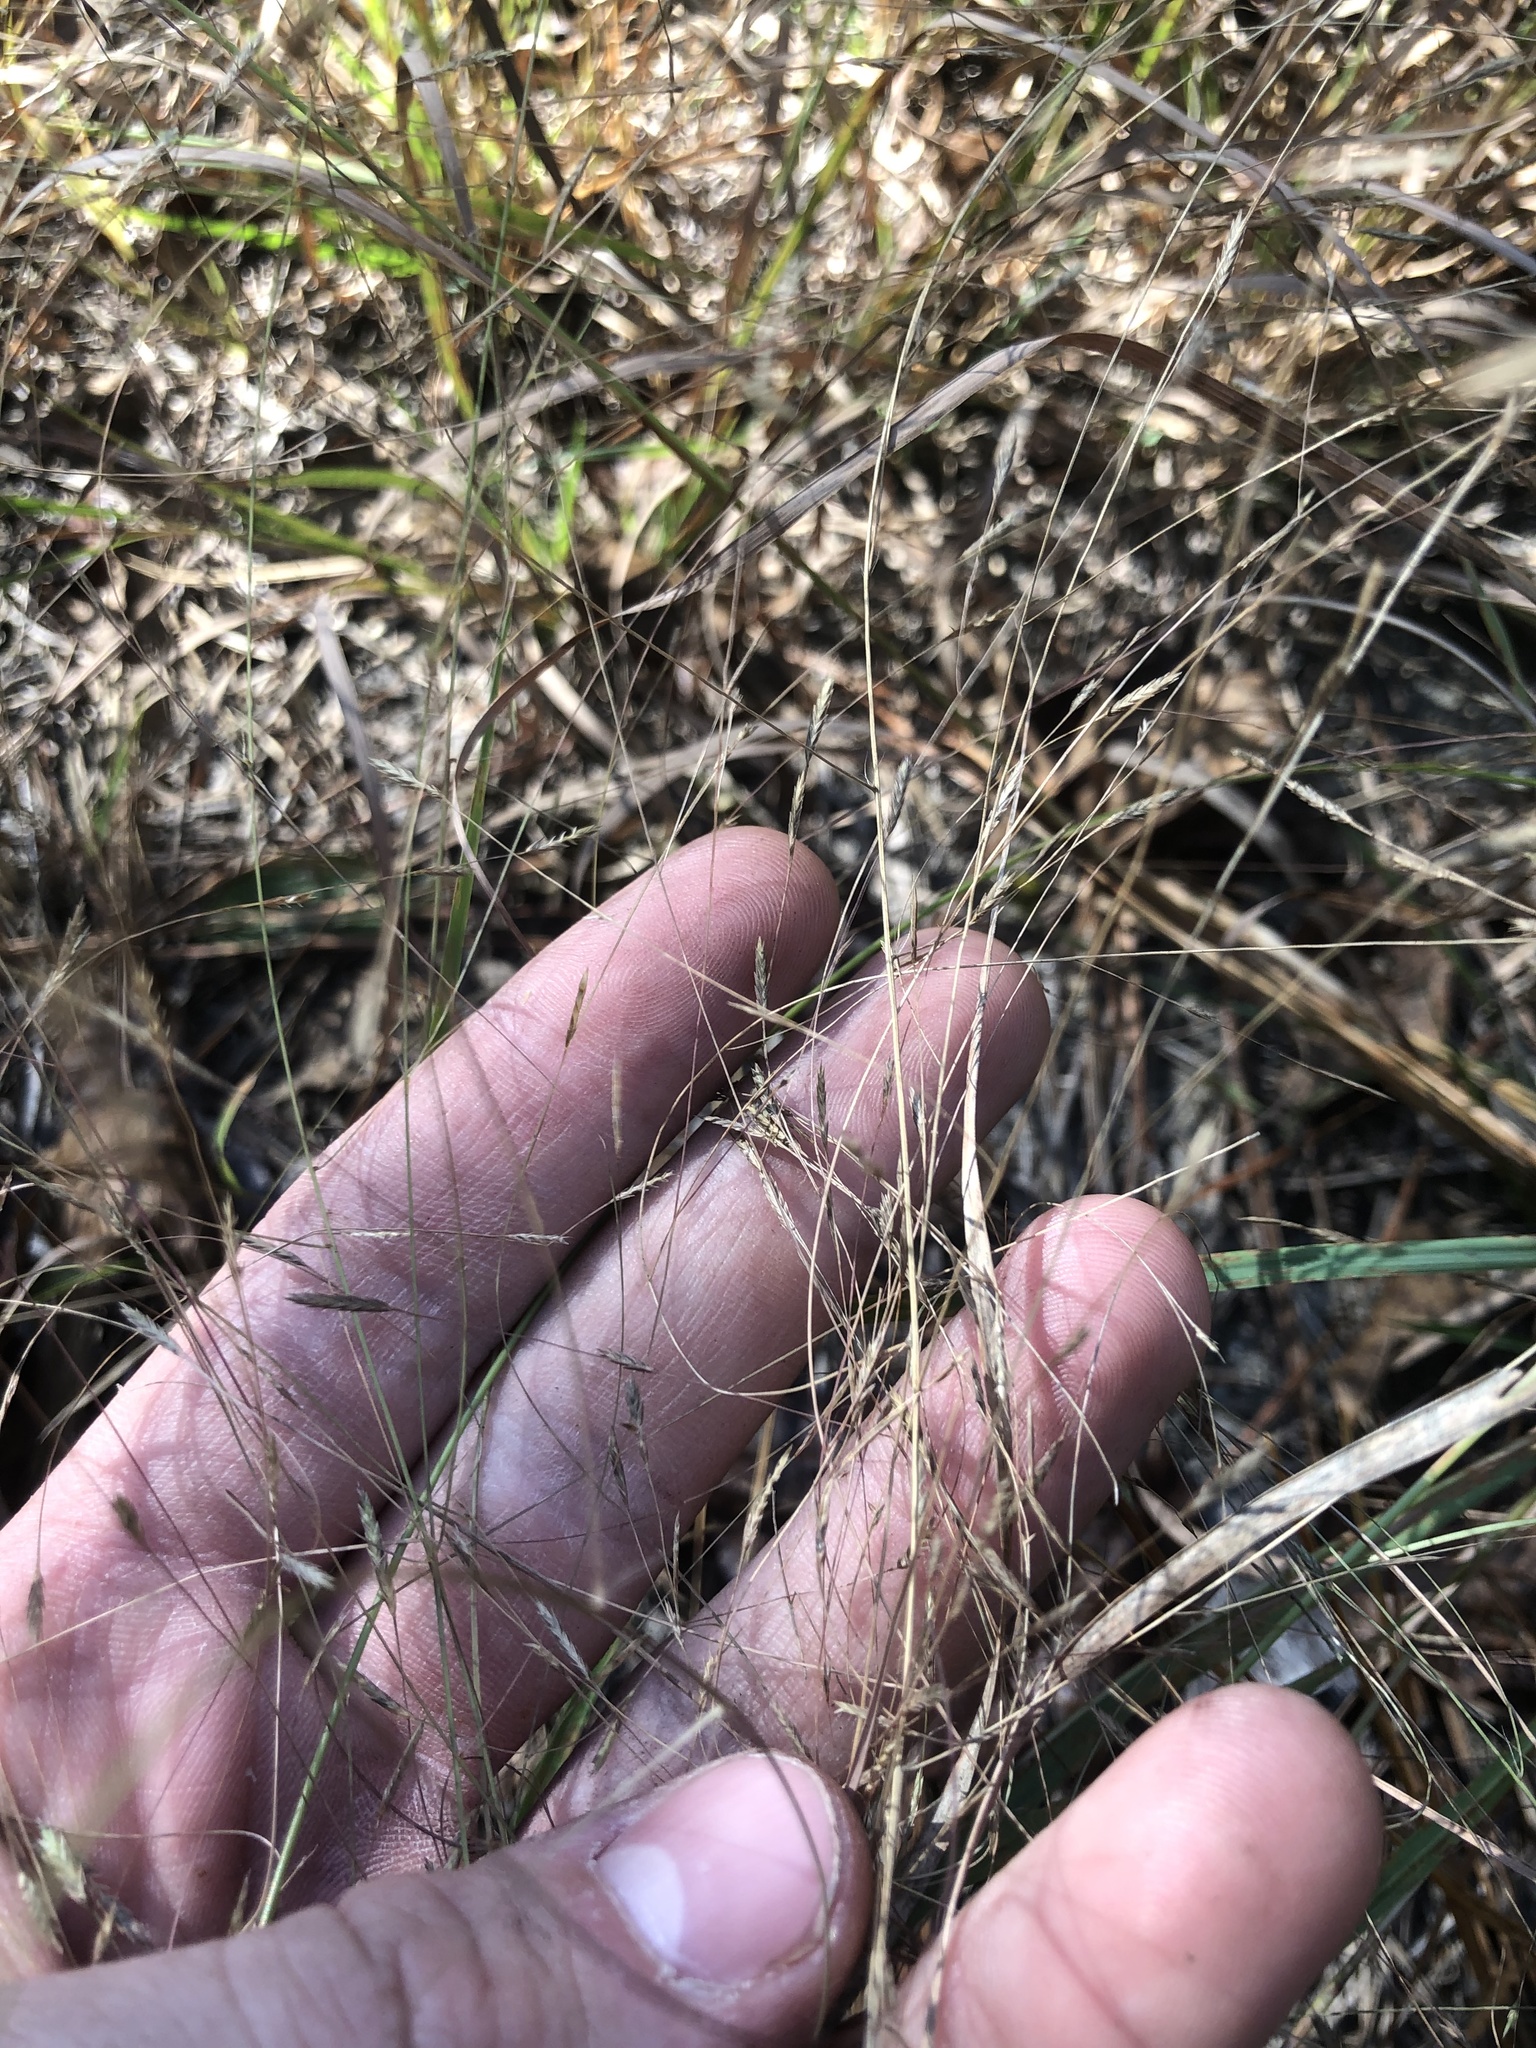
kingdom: Plantae
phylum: Tracheophyta
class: Liliopsida
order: Poales
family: Poaceae
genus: Eragrostis
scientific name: Eragrostis refracta
